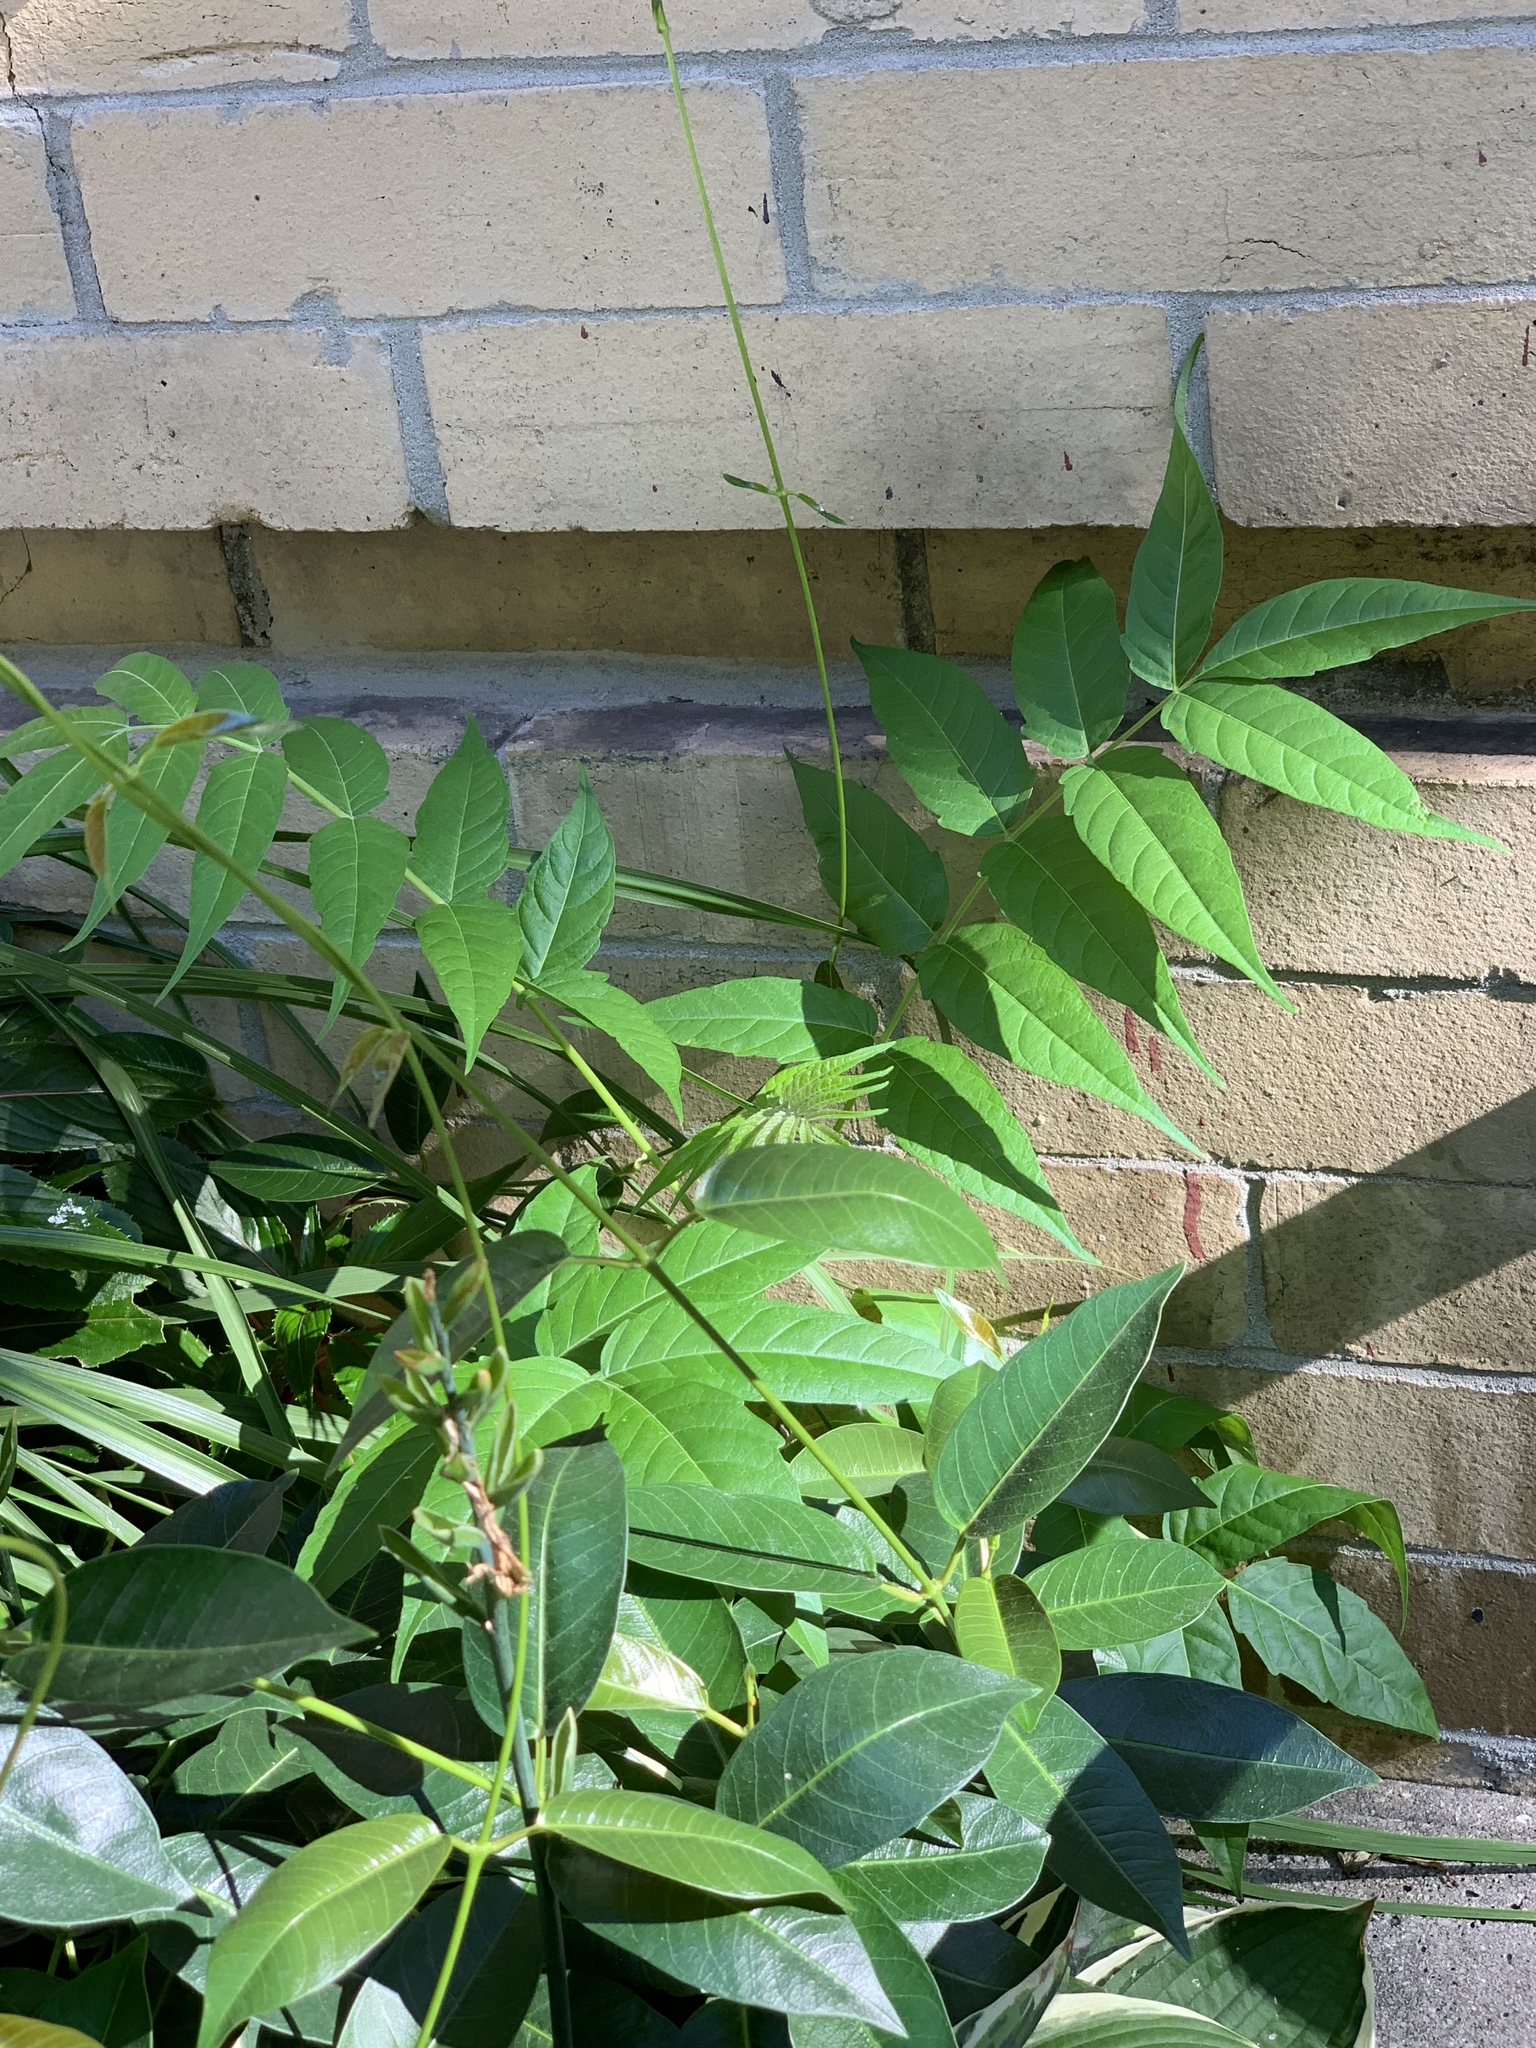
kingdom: Plantae
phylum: Tracheophyta
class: Magnoliopsida
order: Sapindales
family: Simaroubaceae
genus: Ailanthus
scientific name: Ailanthus altissima
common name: Tree-of-heaven
